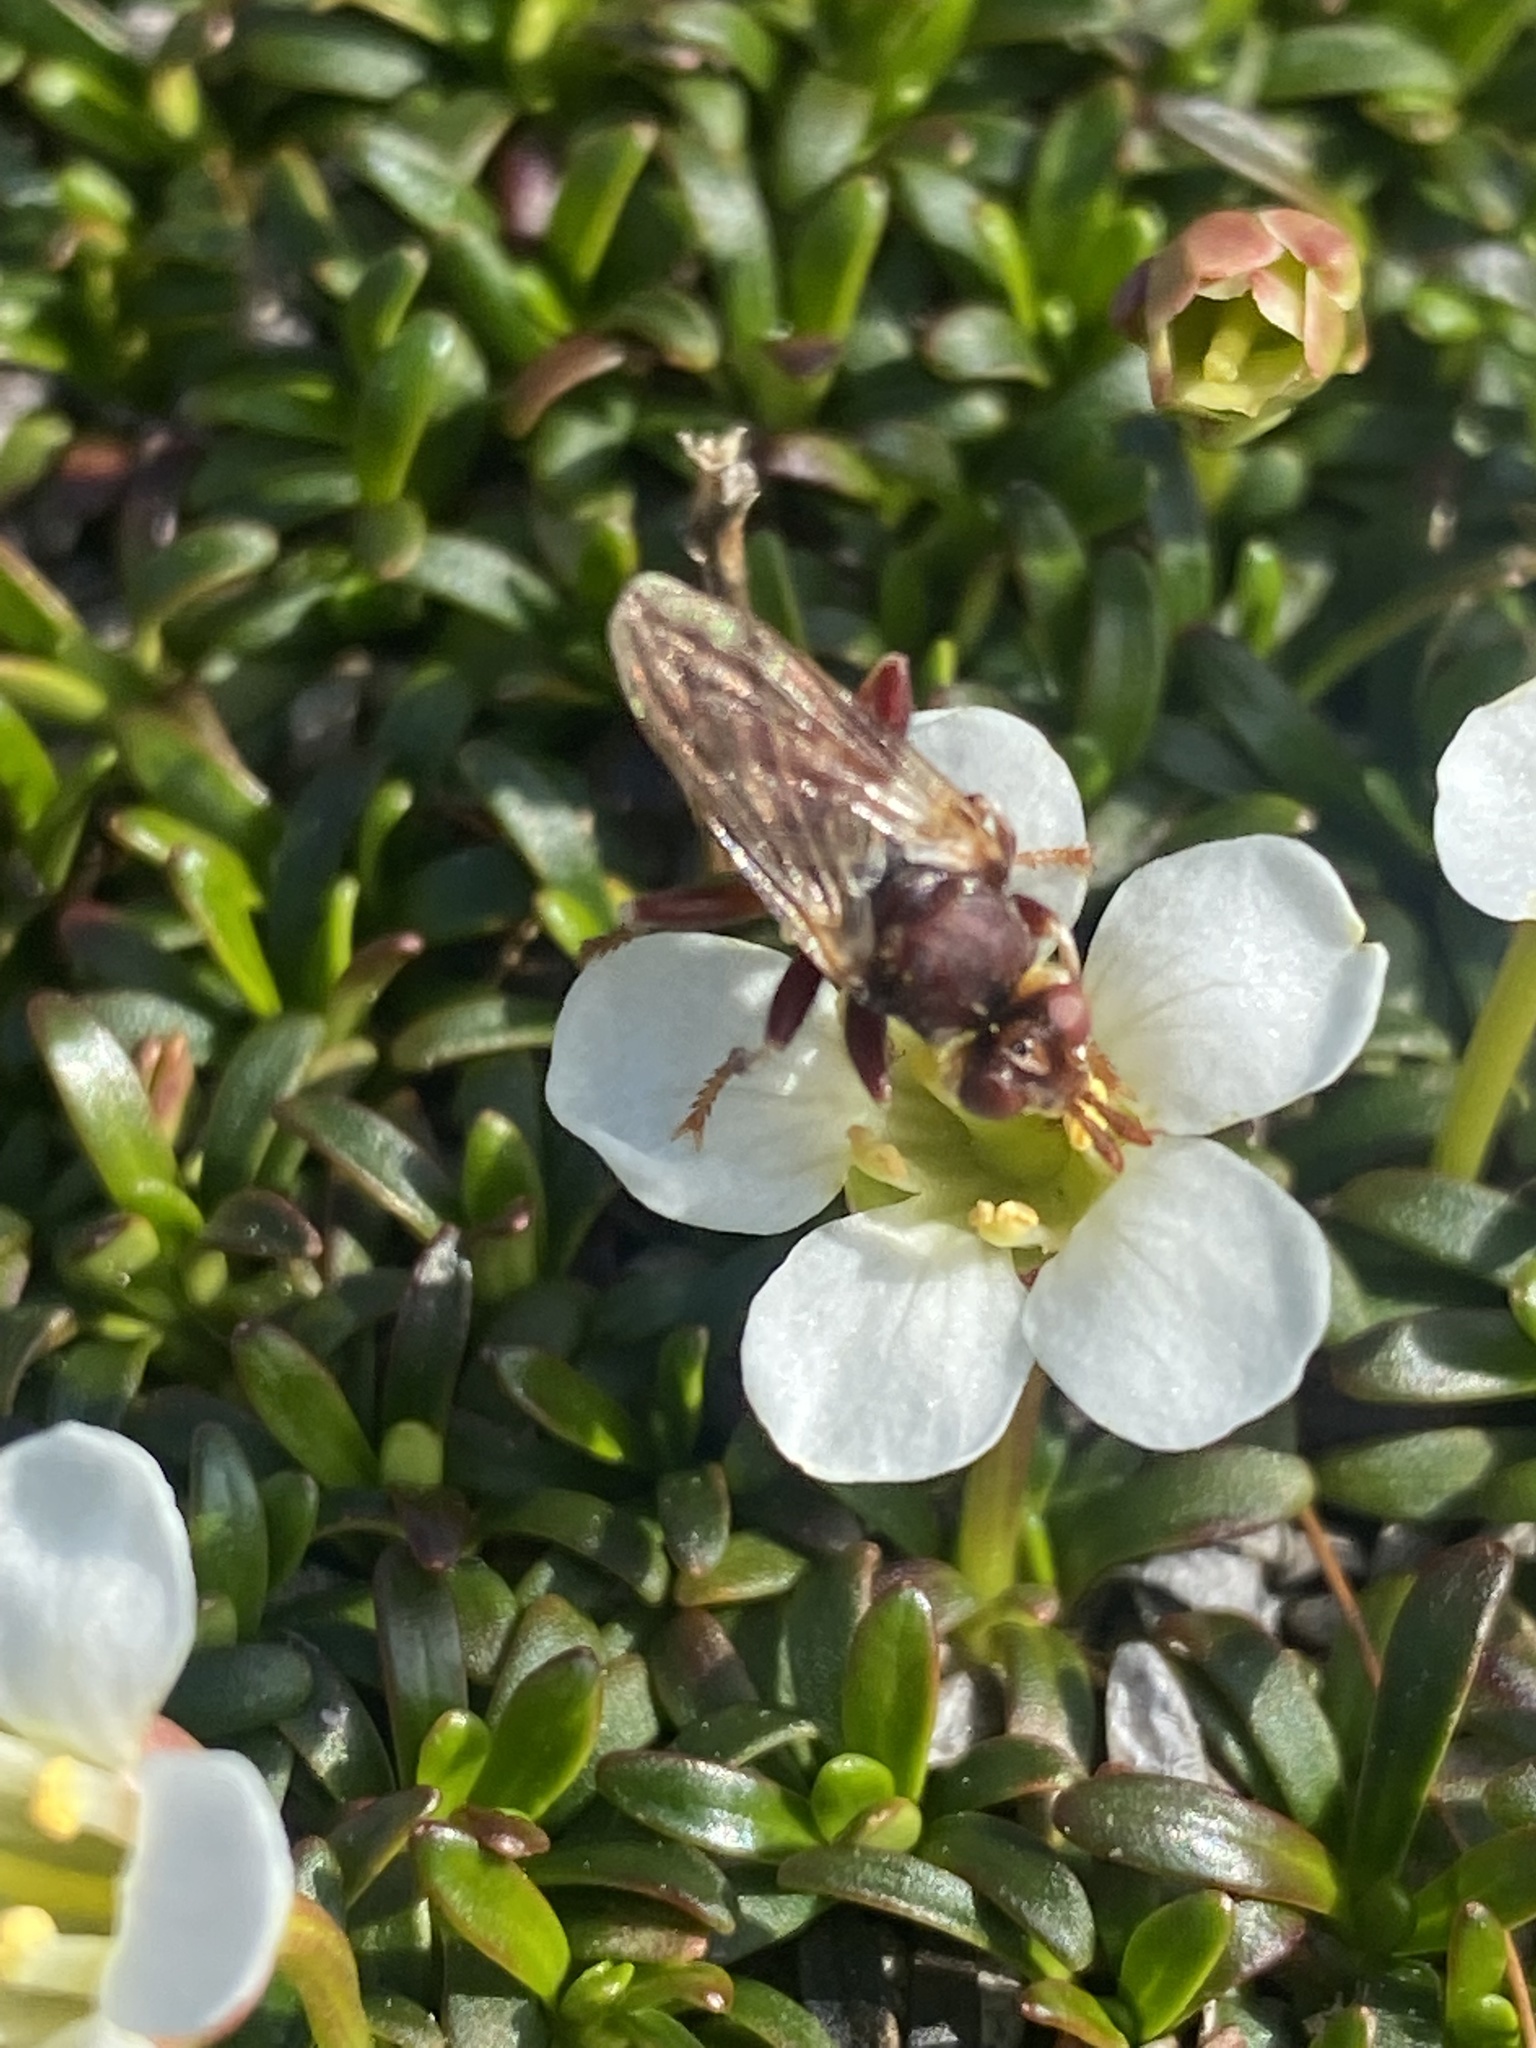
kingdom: Animalia
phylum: Arthropoda
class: Insecta
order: Diptera
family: Conopidae
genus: Myopa
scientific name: Myopa clausa
